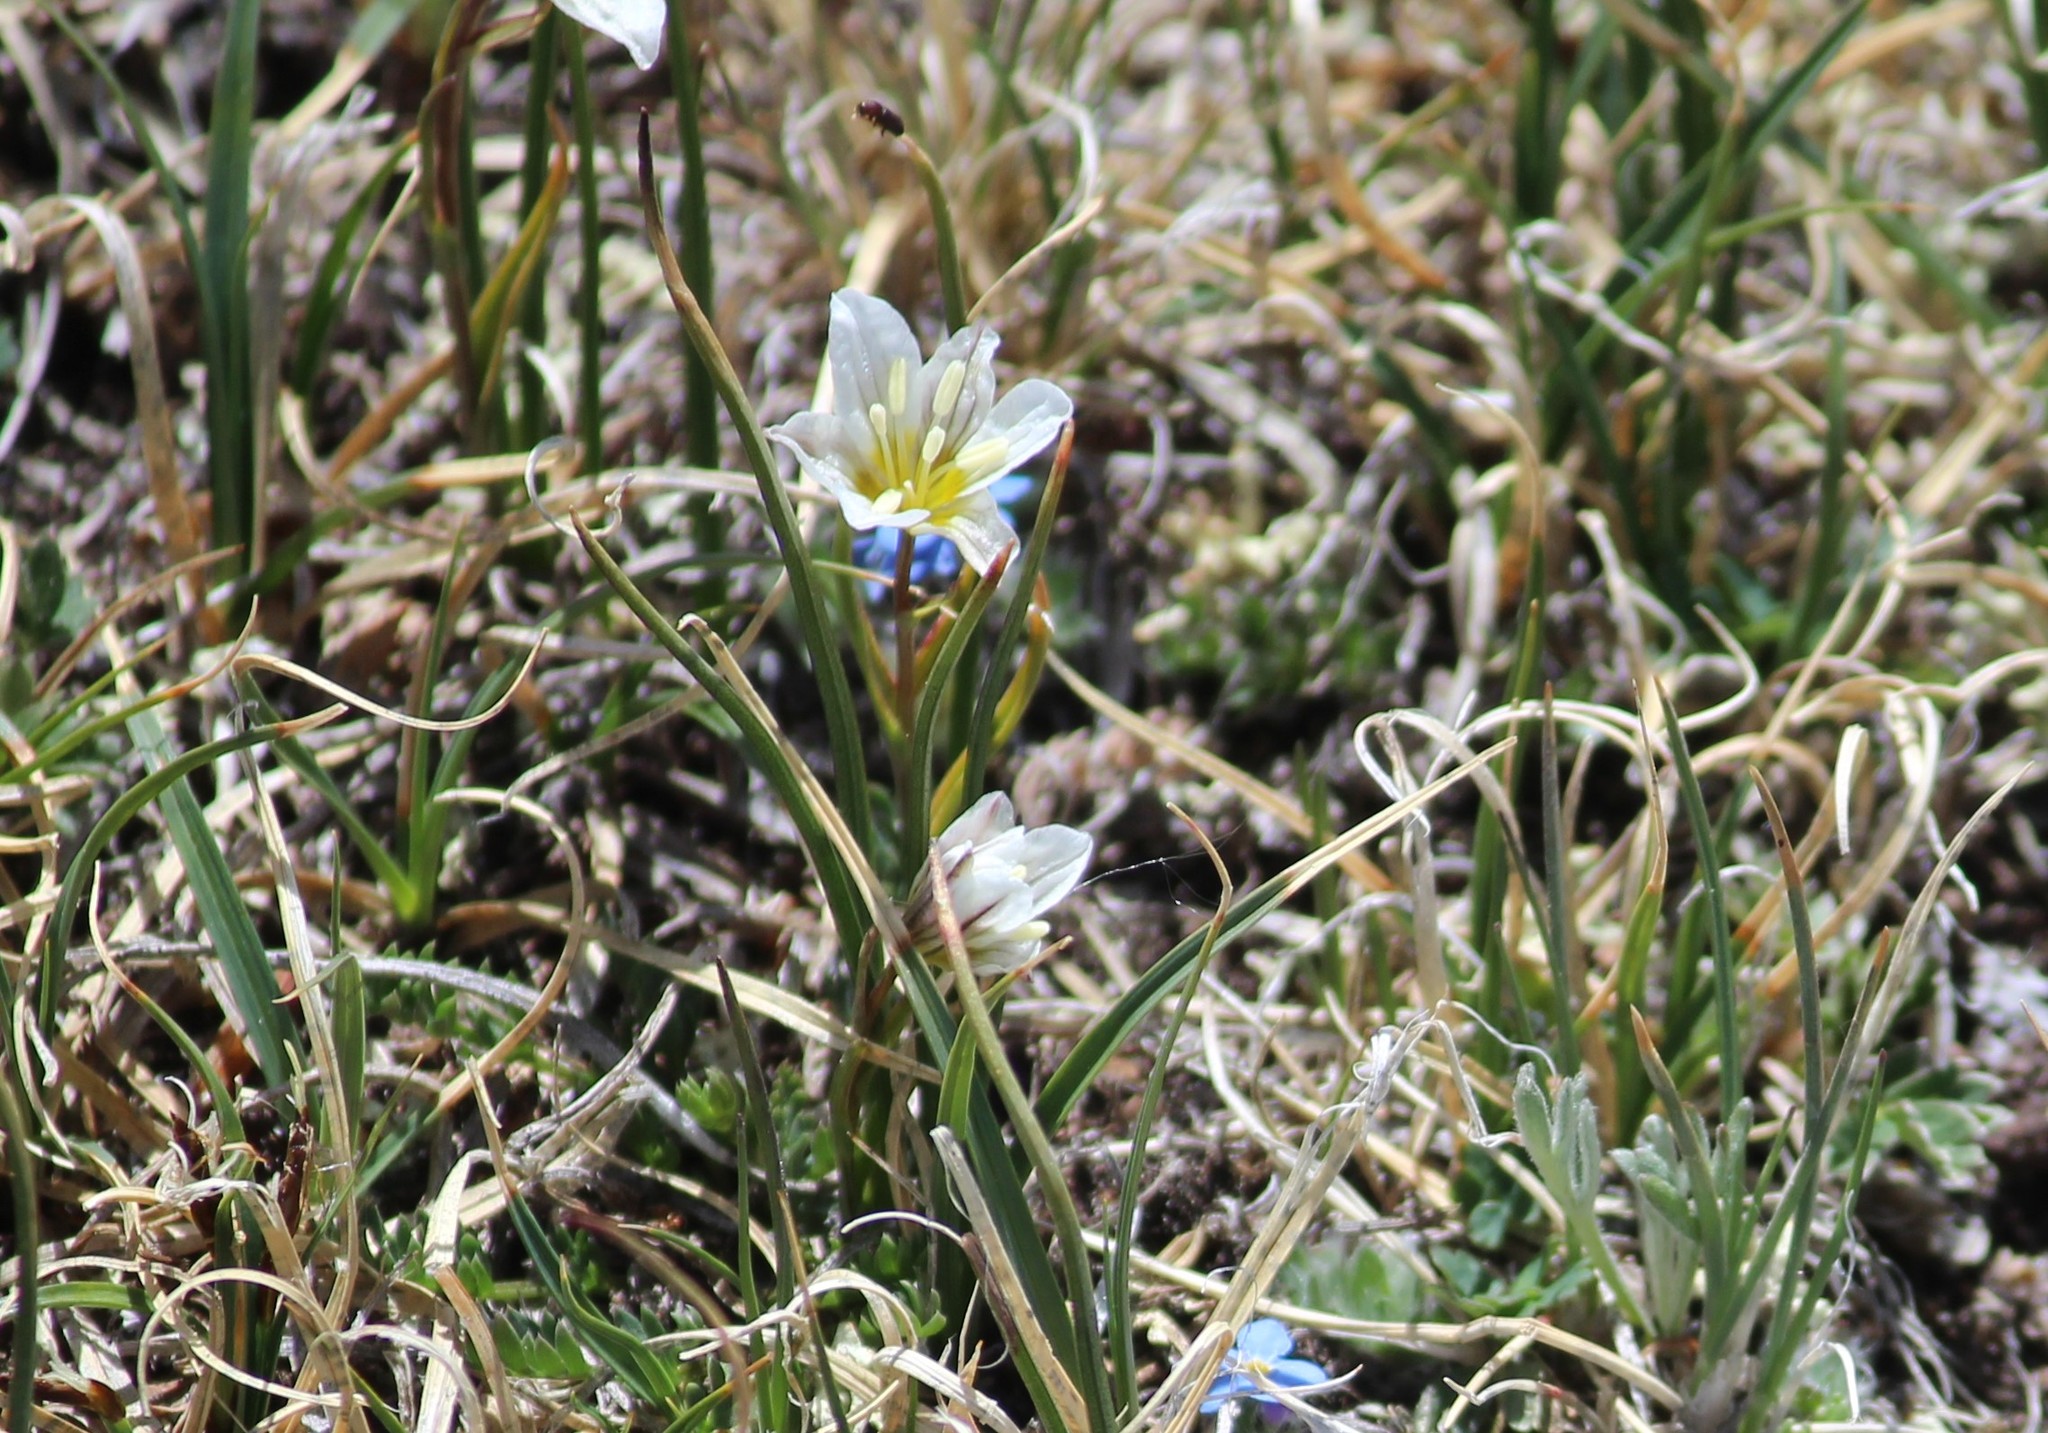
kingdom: Plantae
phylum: Tracheophyta
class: Liliopsida
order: Liliales
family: Liliaceae
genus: Gagea
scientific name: Gagea serotina
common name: Snowdon lily
